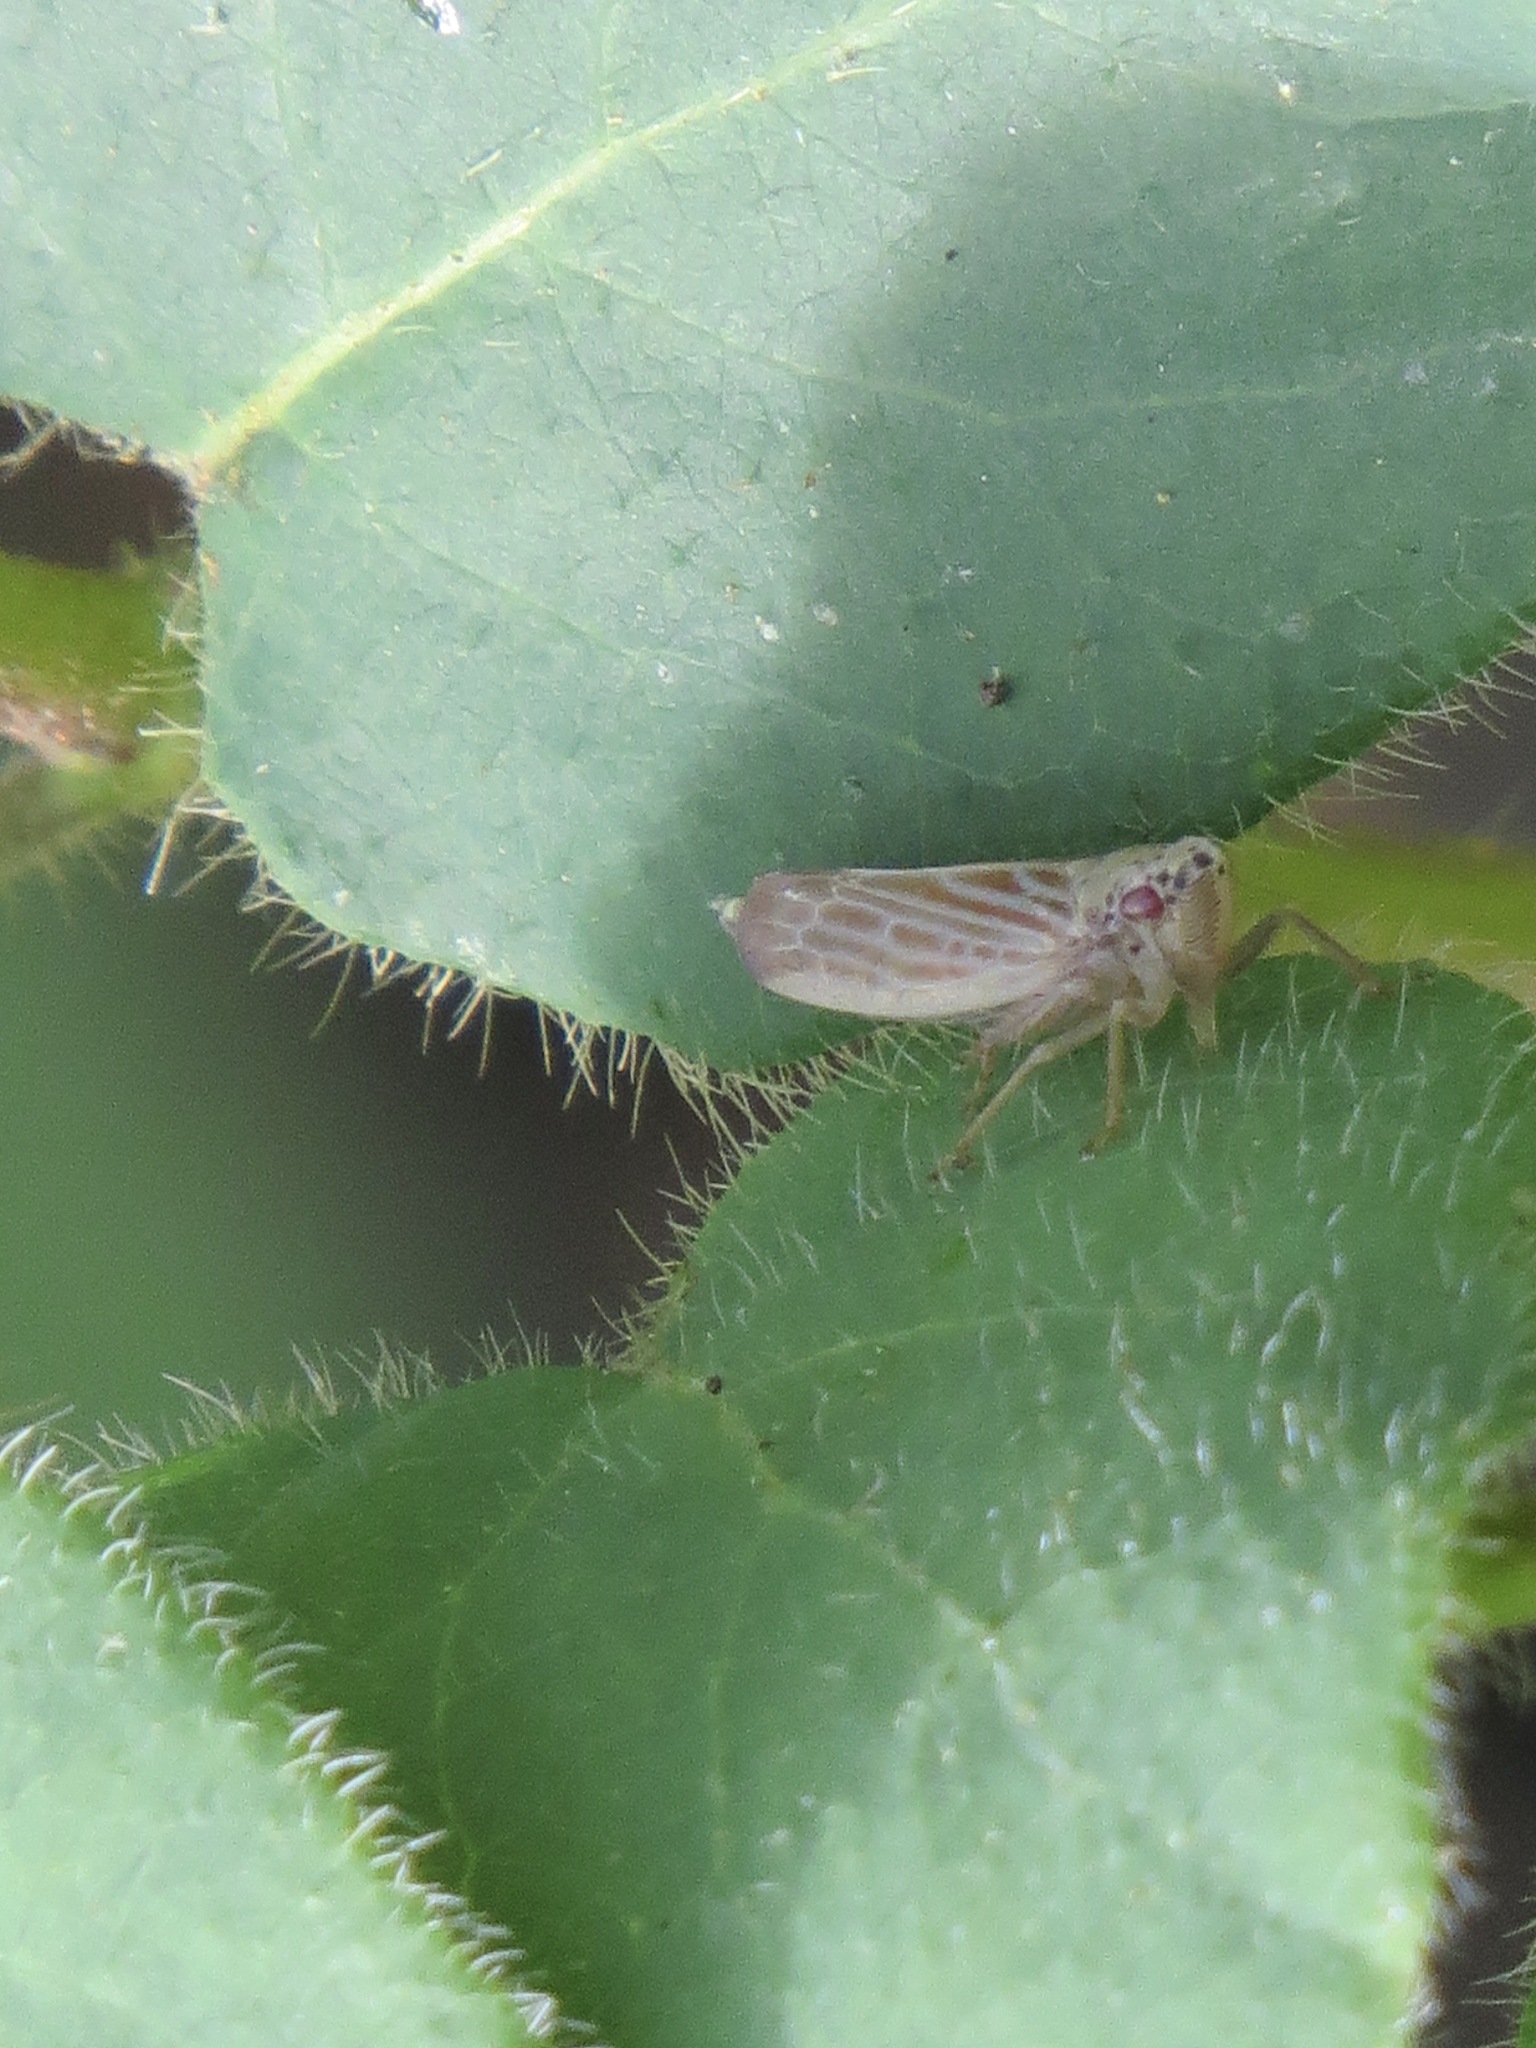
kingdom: Animalia
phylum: Arthropoda
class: Insecta
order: Hemiptera
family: Cicadellidae
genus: Pagaronia
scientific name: Pagaronia triunata
